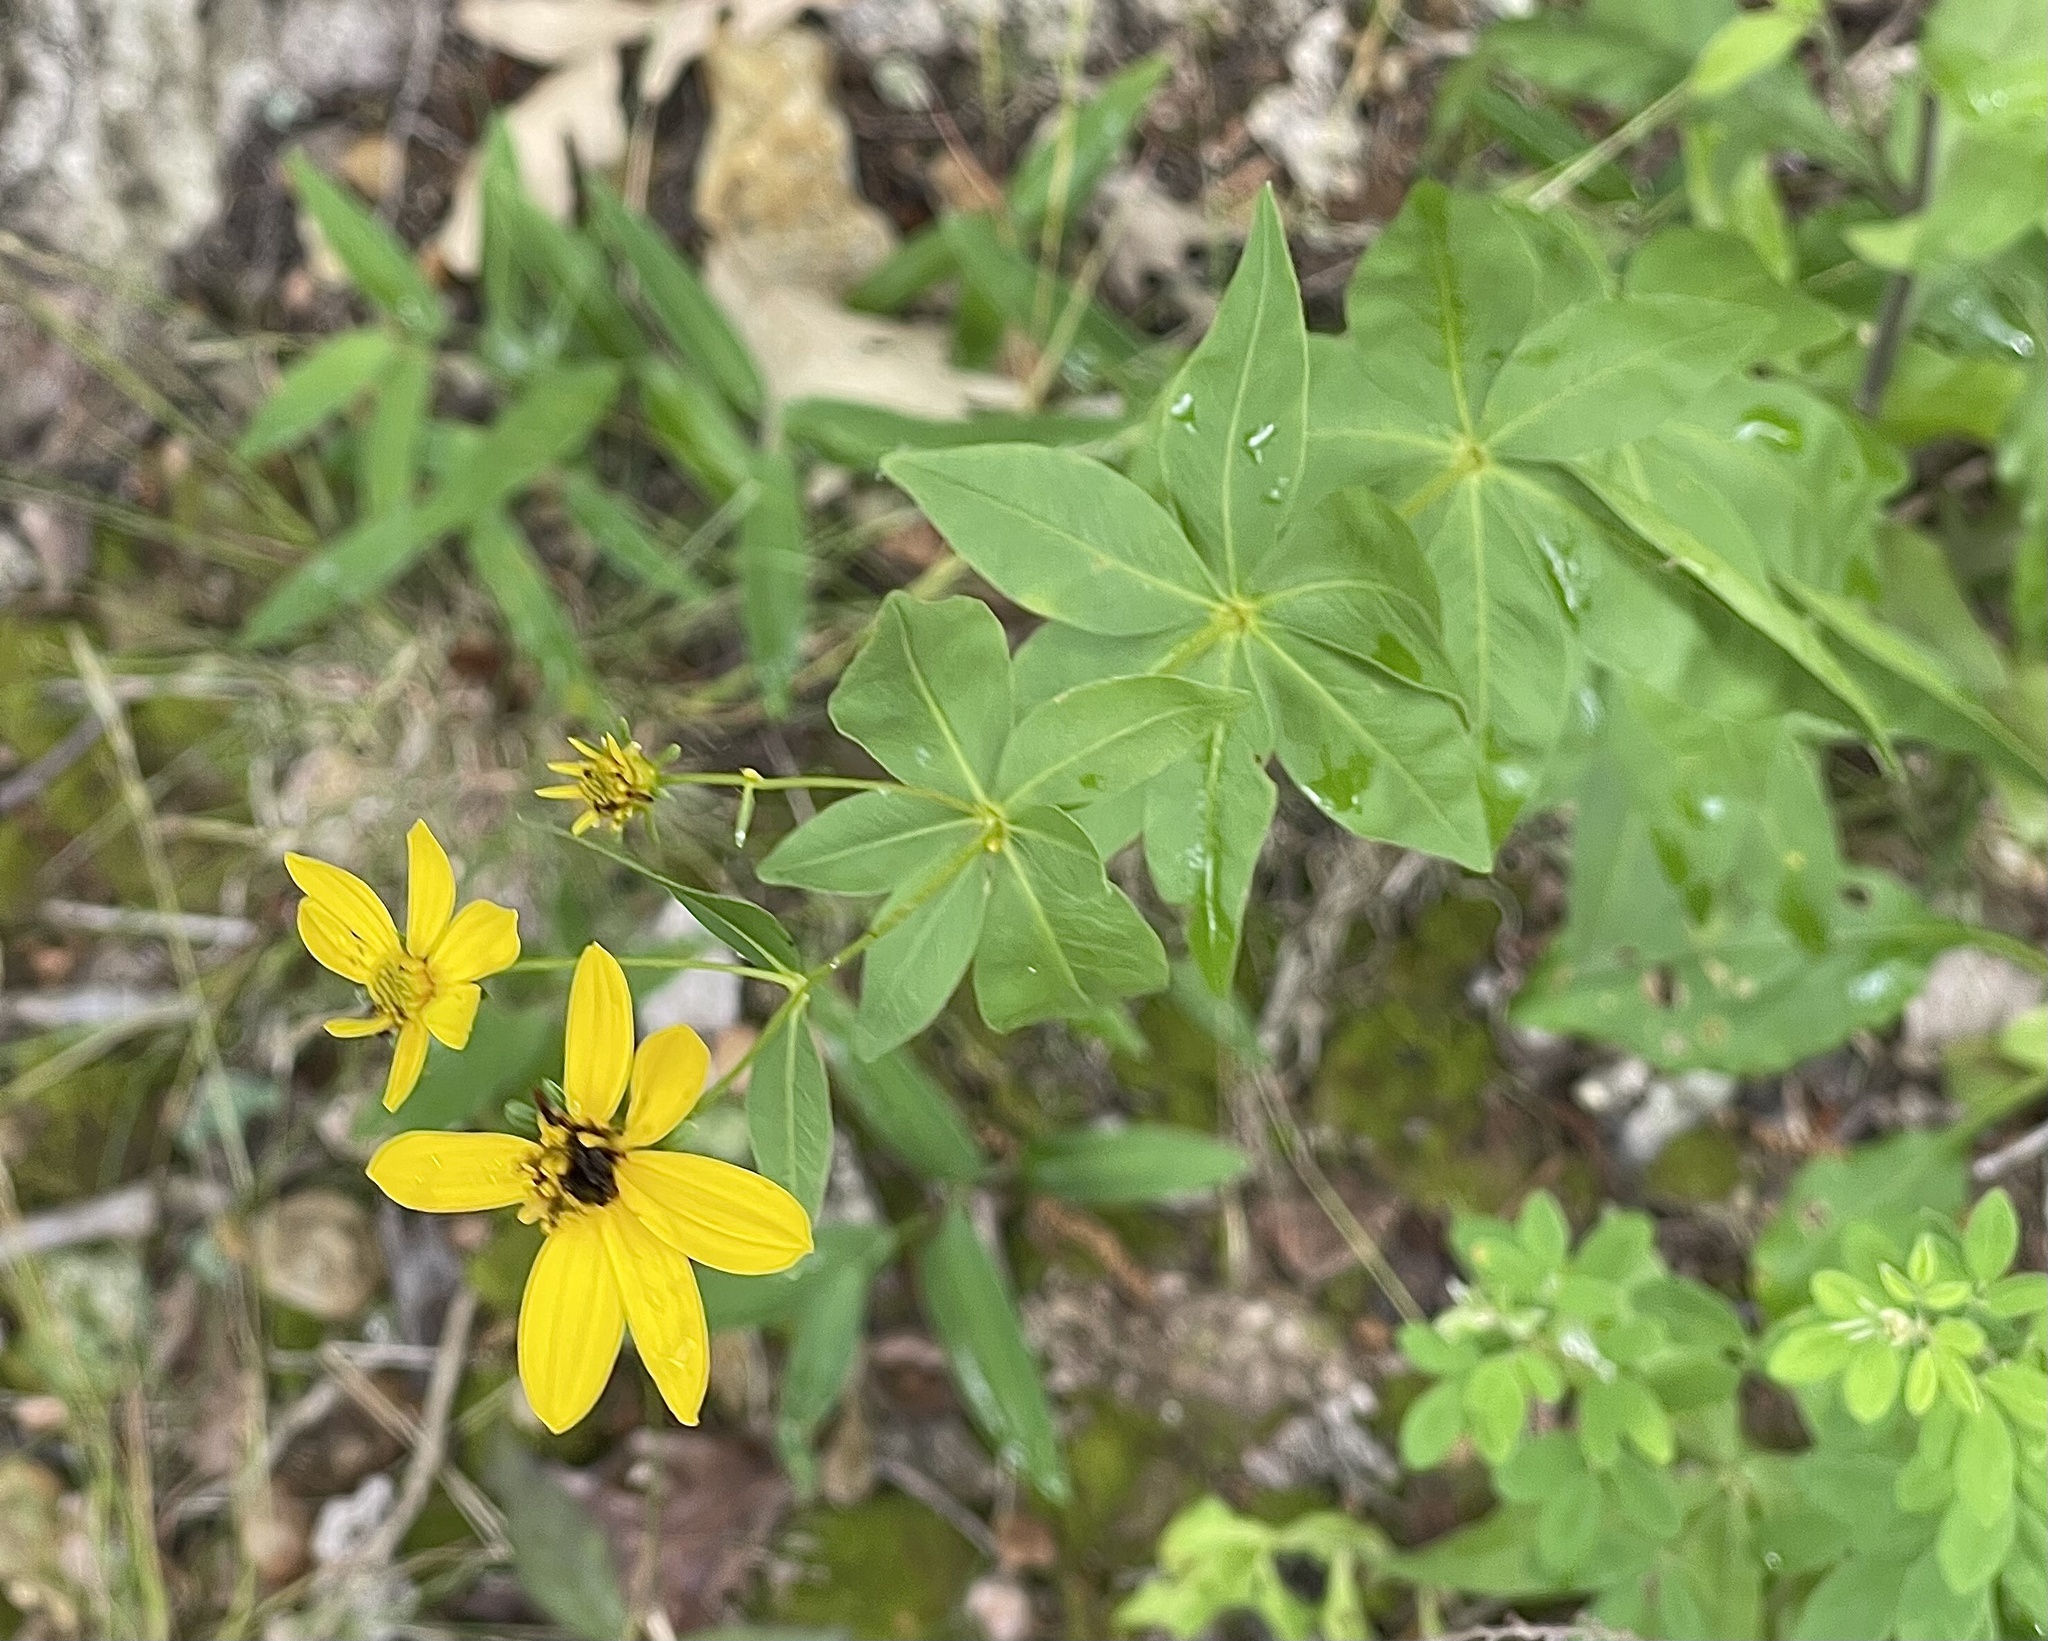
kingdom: Plantae
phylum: Tracheophyta
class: Magnoliopsida
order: Asterales
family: Asteraceae
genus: Coreopsis
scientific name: Coreopsis major
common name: Forest tickseed
